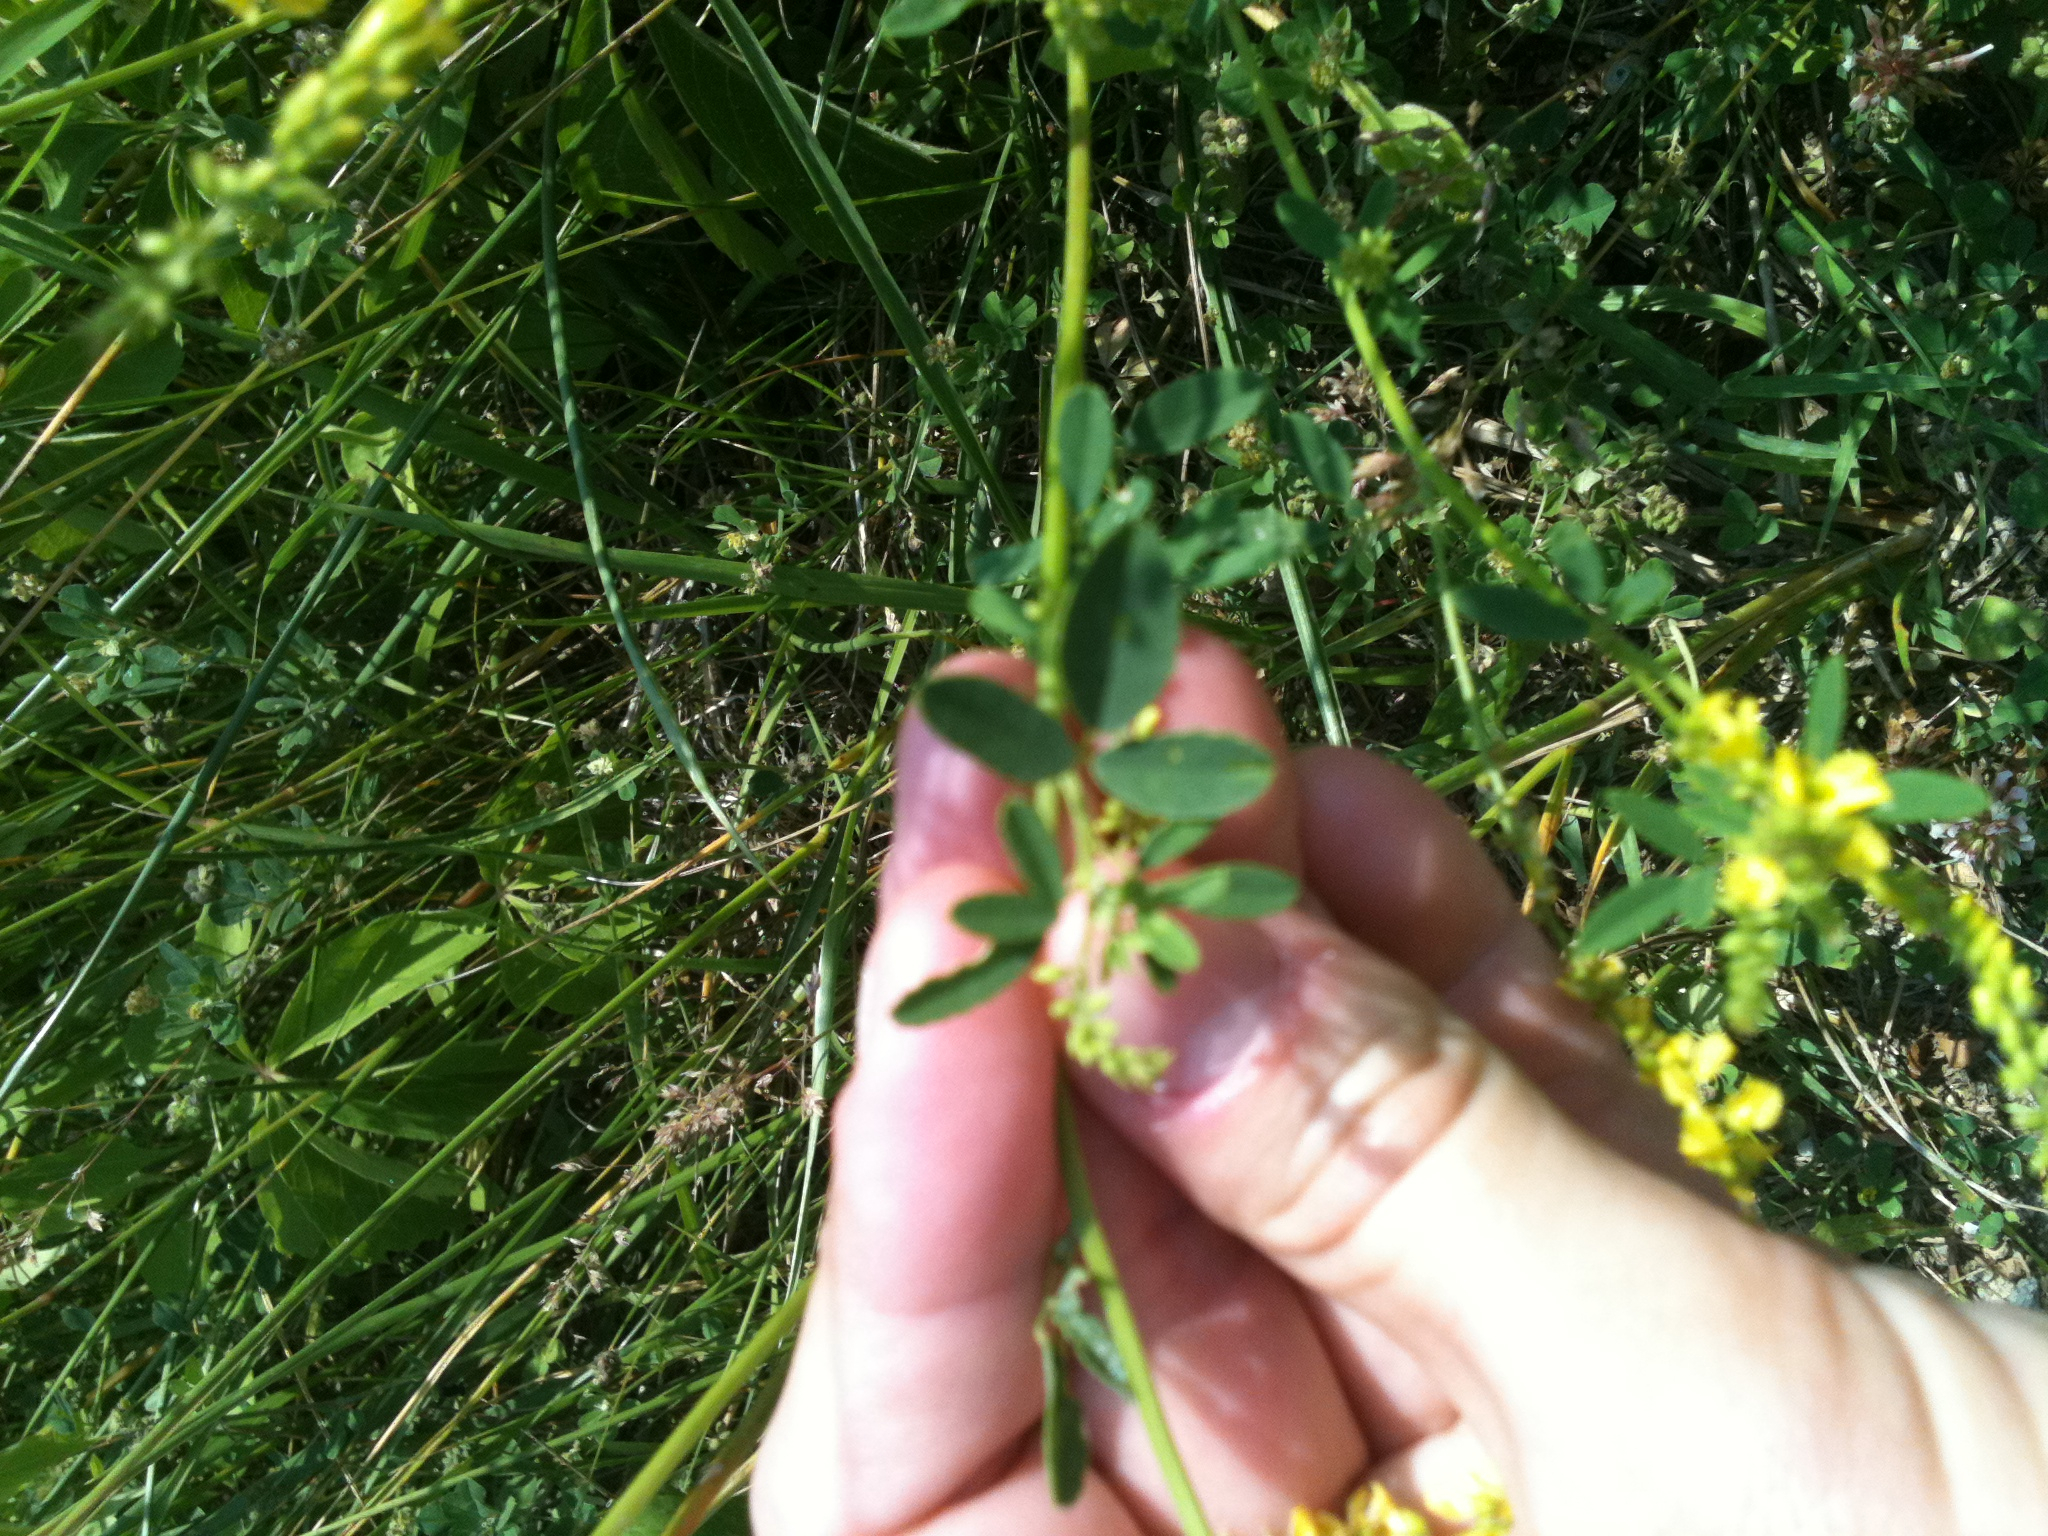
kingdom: Plantae
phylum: Tracheophyta
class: Magnoliopsida
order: Fabales
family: Fabaceae
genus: Melilotus
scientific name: Melilotus officinalis
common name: Sweetclover
